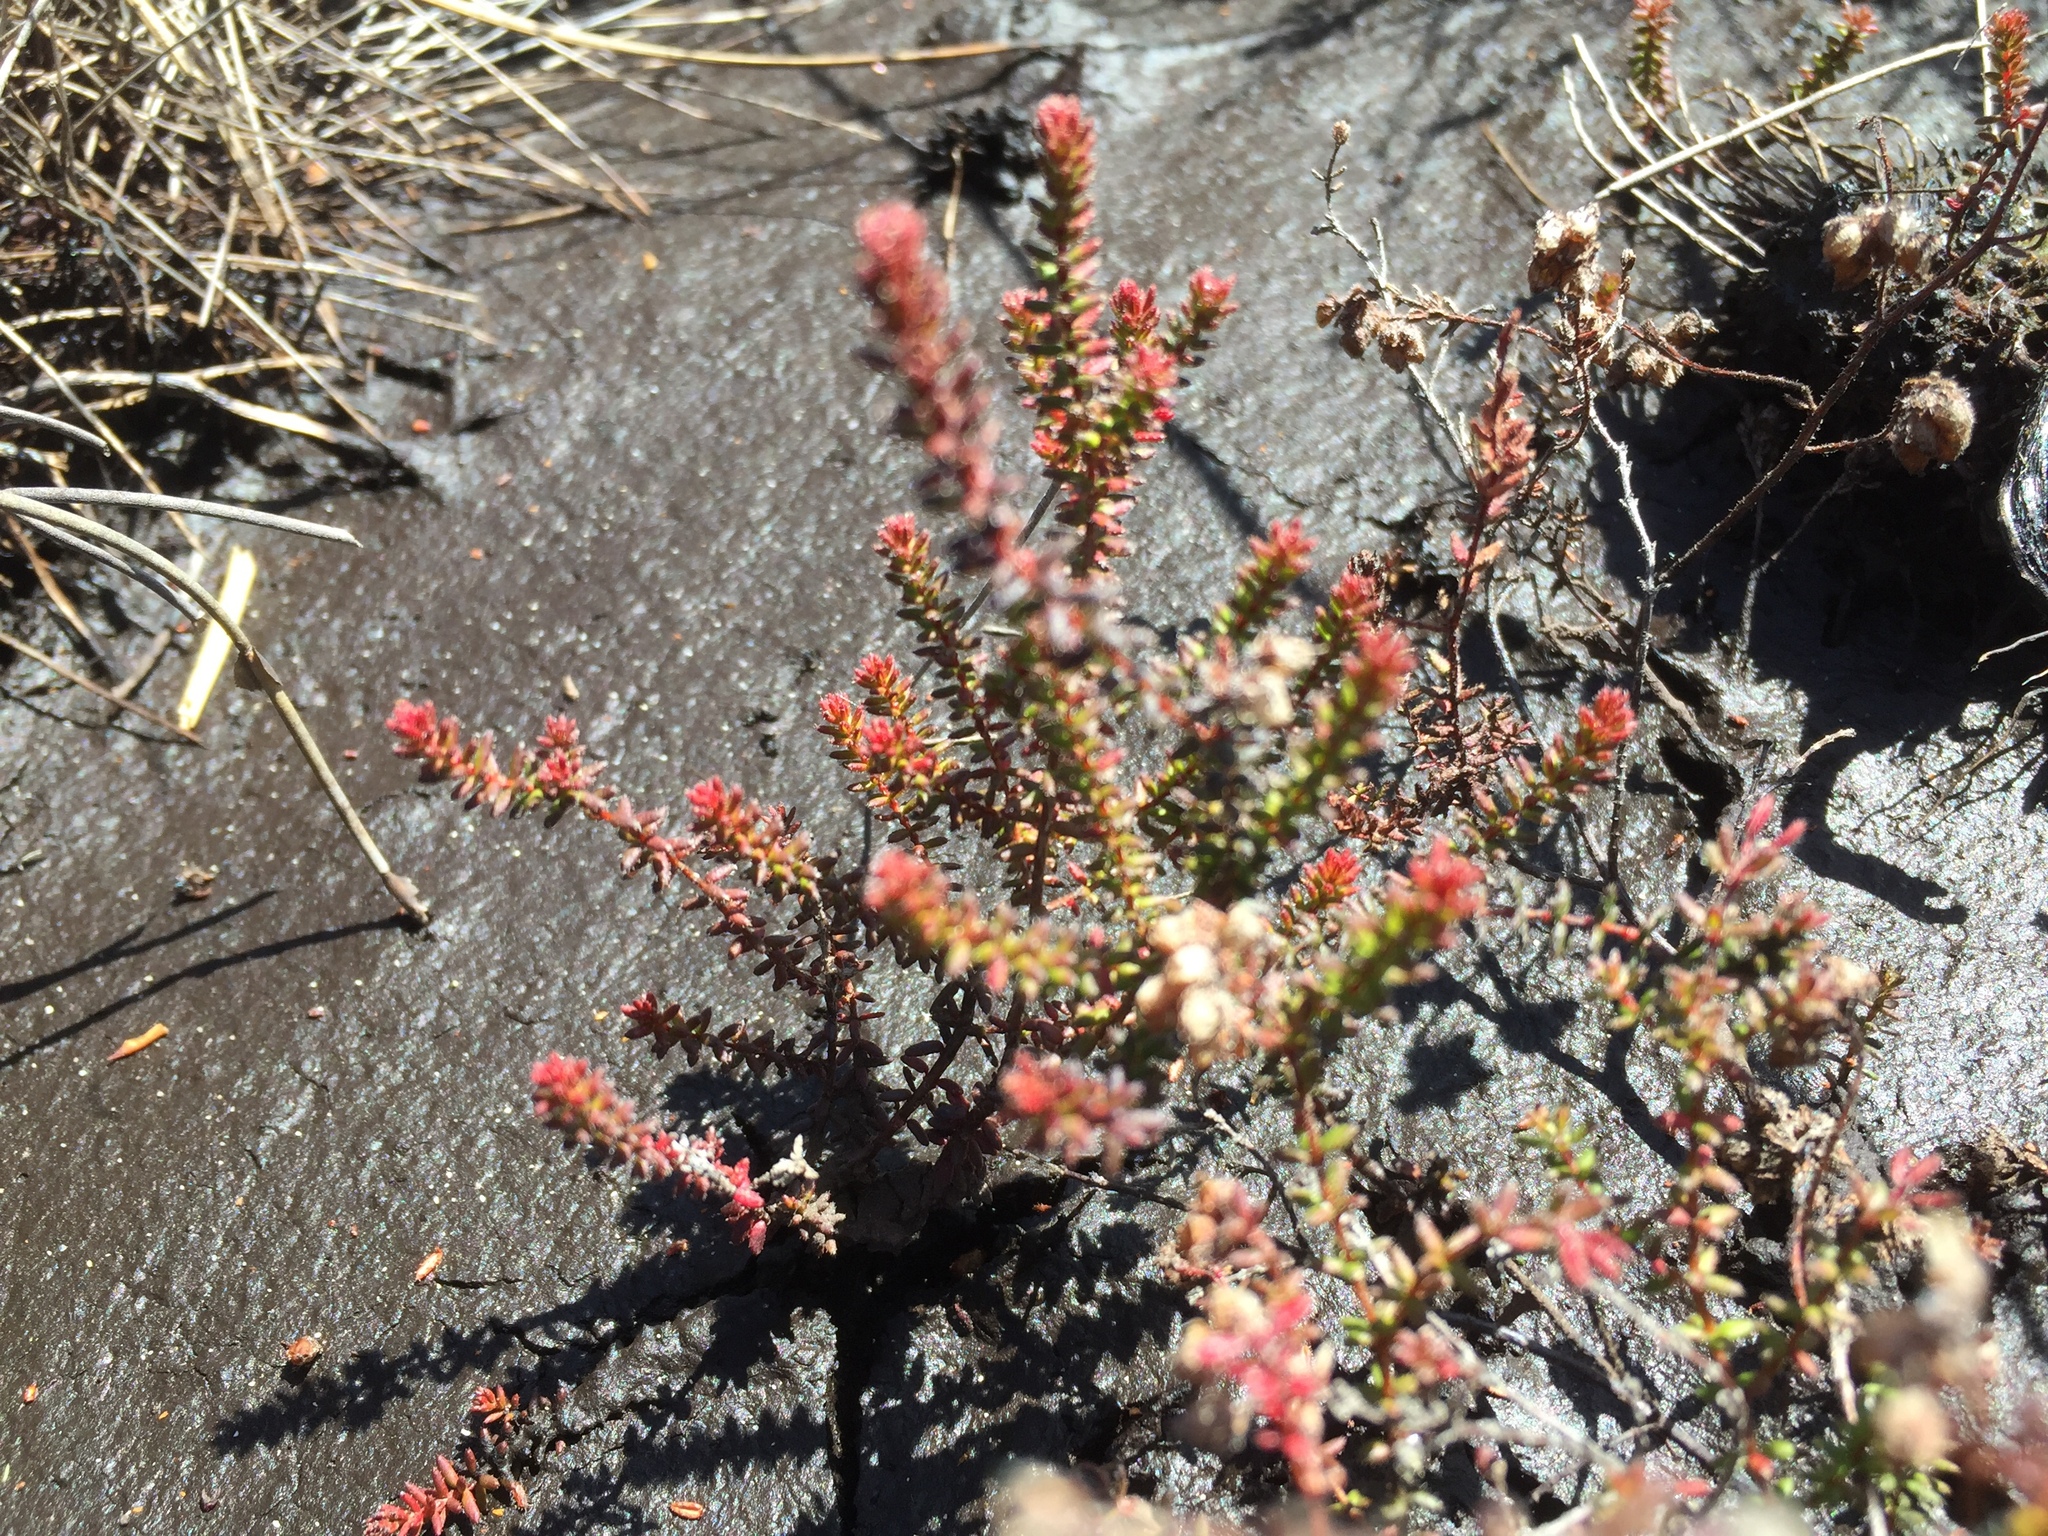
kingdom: Plantae
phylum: Tracheophyta
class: Magnoliopsida
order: Ericales
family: Ericaceae
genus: Erica
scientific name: Erica clavisepala
